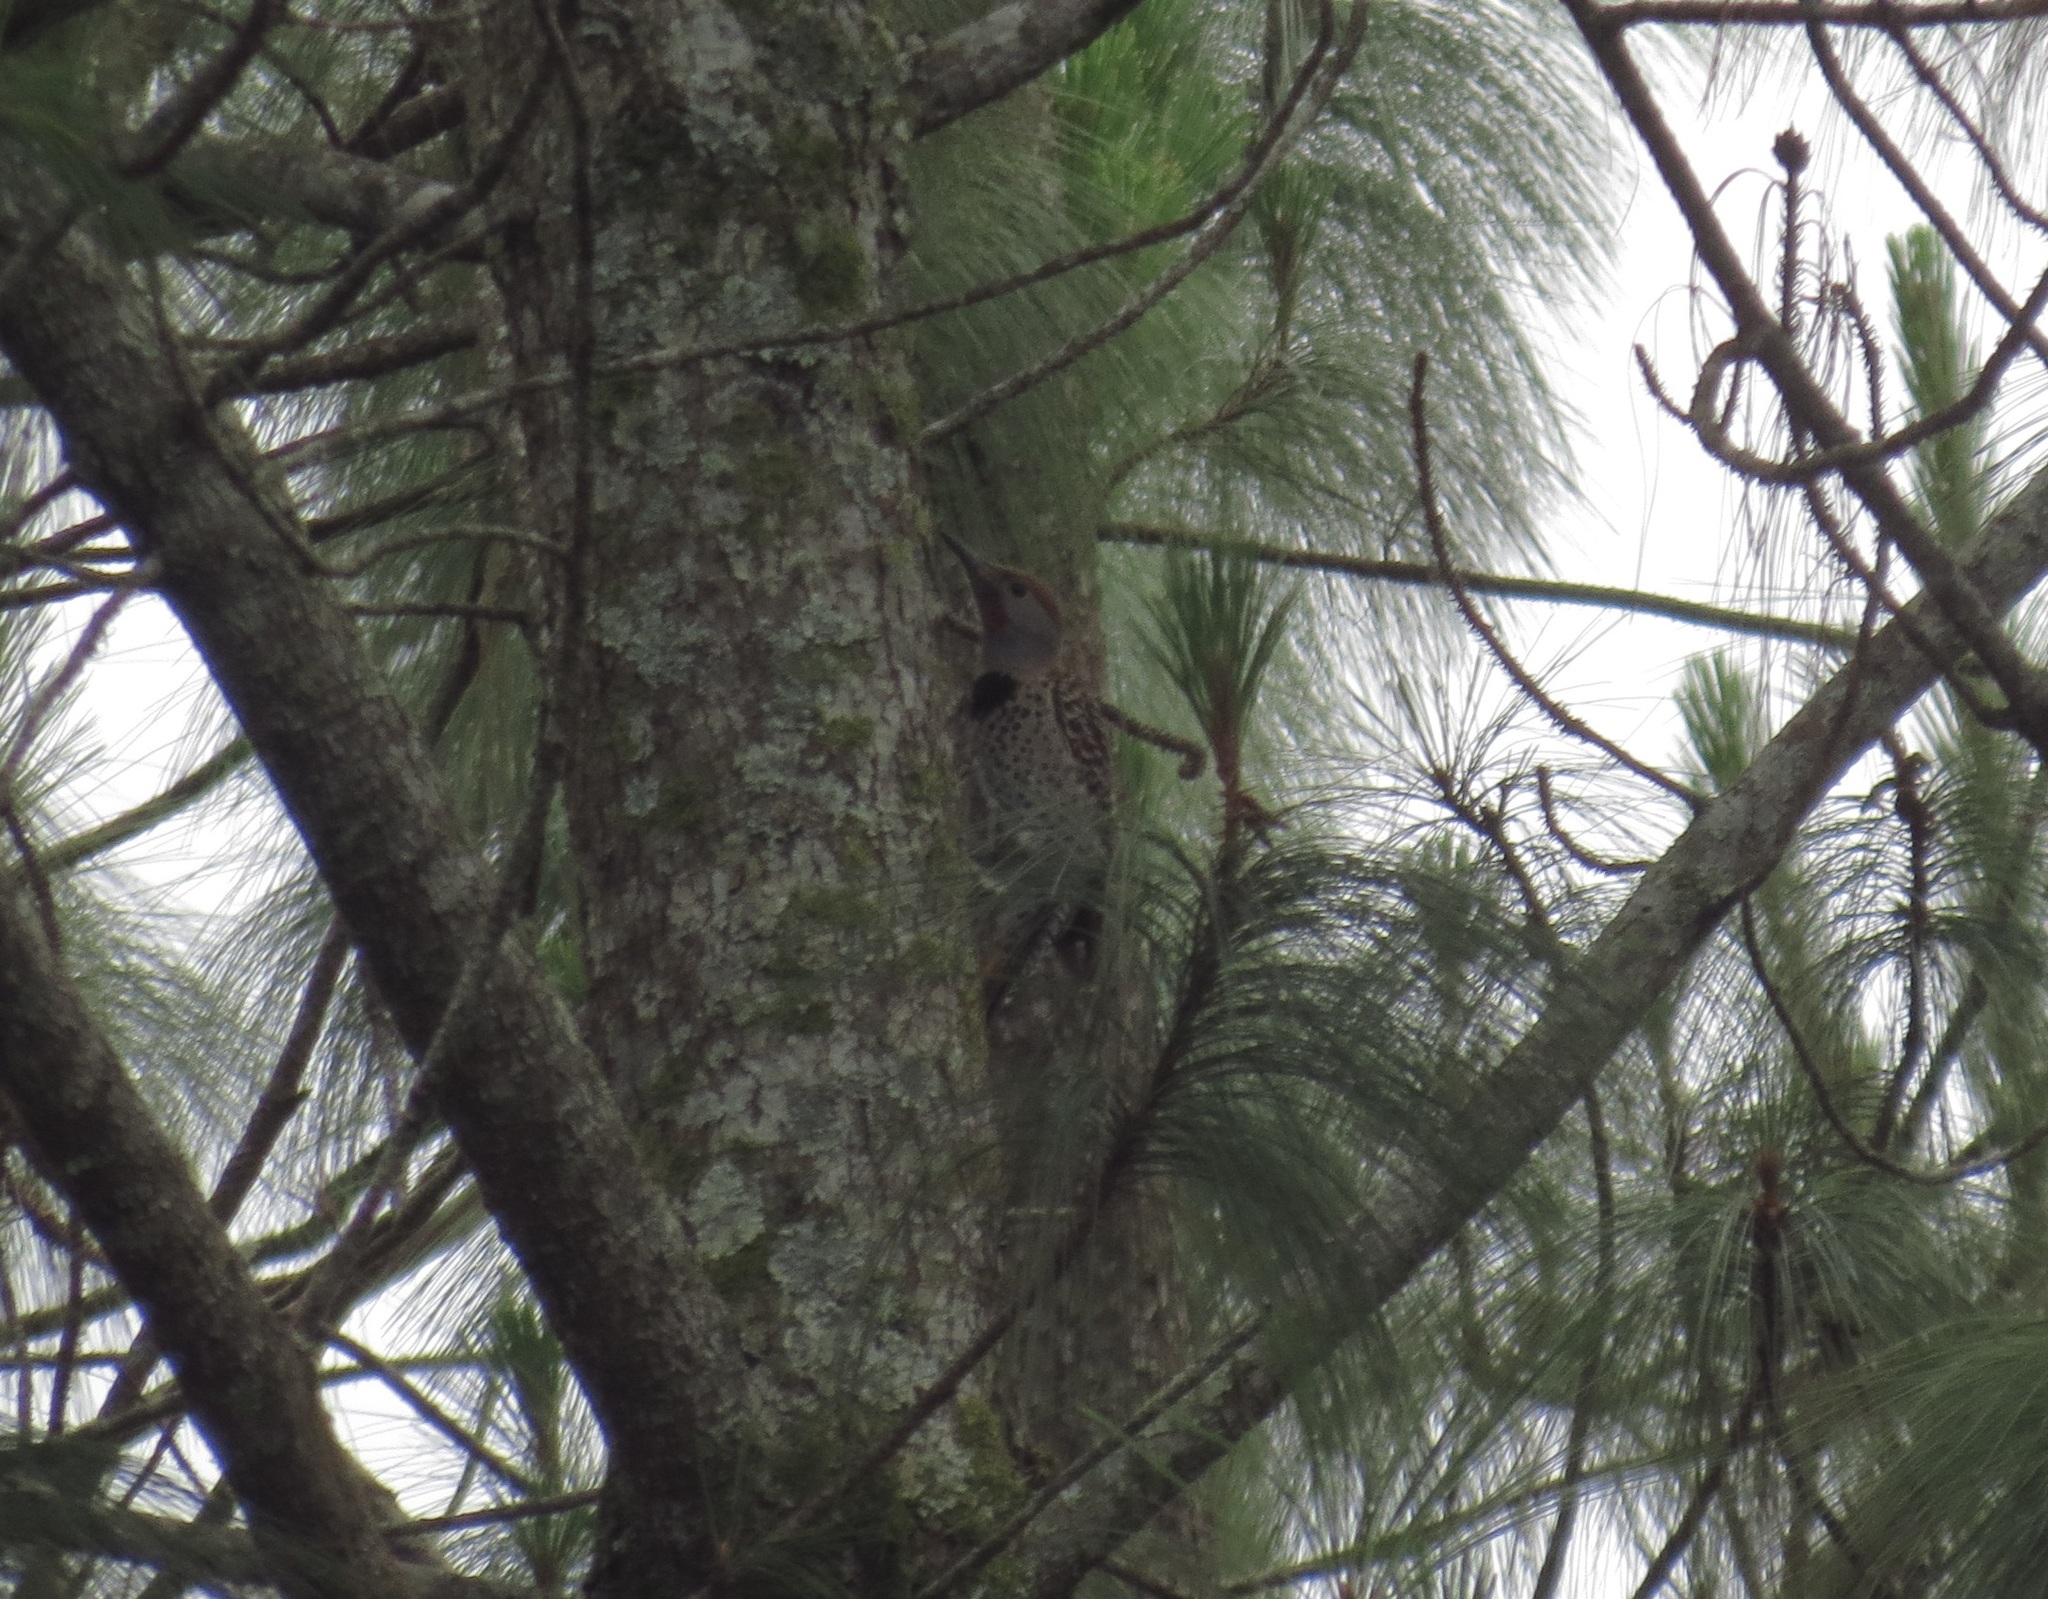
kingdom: Animalia
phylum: Chordata
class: Aves
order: Piciformes
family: Picidae
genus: Colaptes
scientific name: Colaptes auratus
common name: Northern flicker
